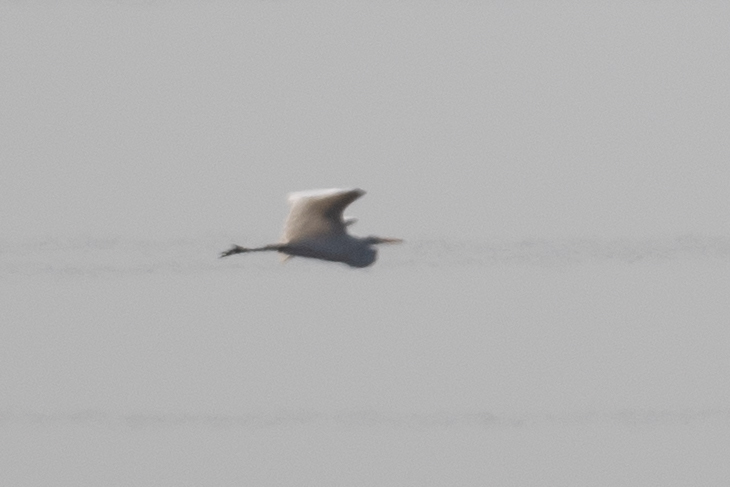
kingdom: Animalia
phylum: Chordata
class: Aves
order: Pelecaniformes
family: Ardeidae
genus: Ardea
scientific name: Ardea alba
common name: Great egret
